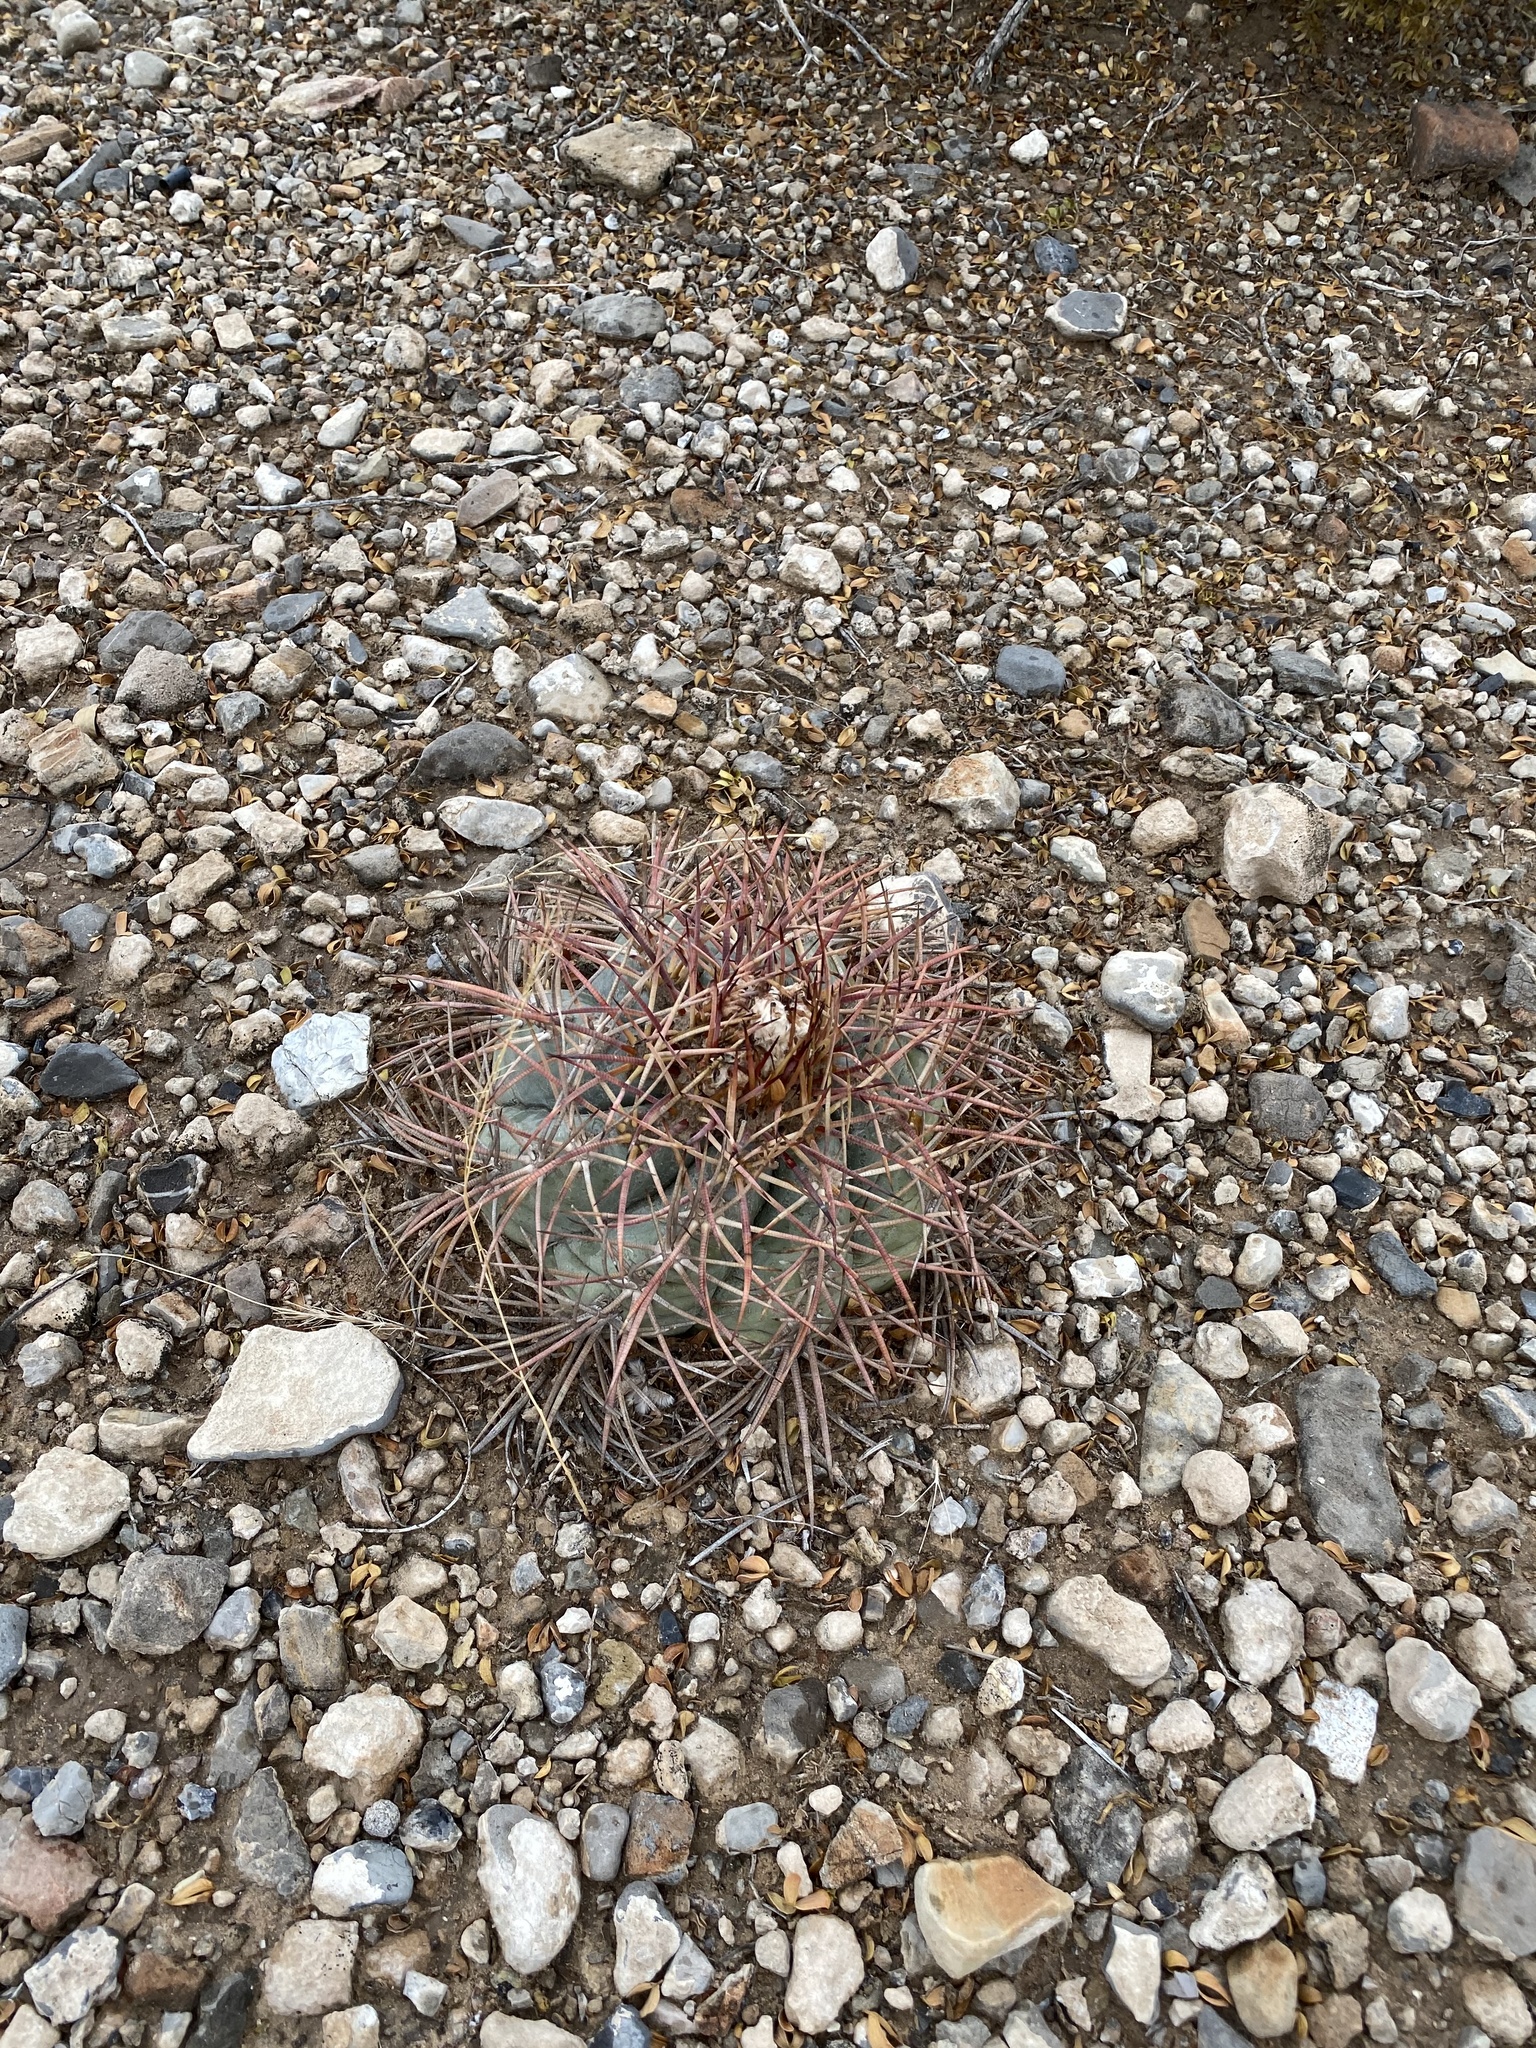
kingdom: Plantae
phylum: Tracheophyta
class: Magnoliopsida
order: Caryophyllales
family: Cactaceae
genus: Echinocactus
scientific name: Echinocactus horizonthalonius
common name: Devilshead
